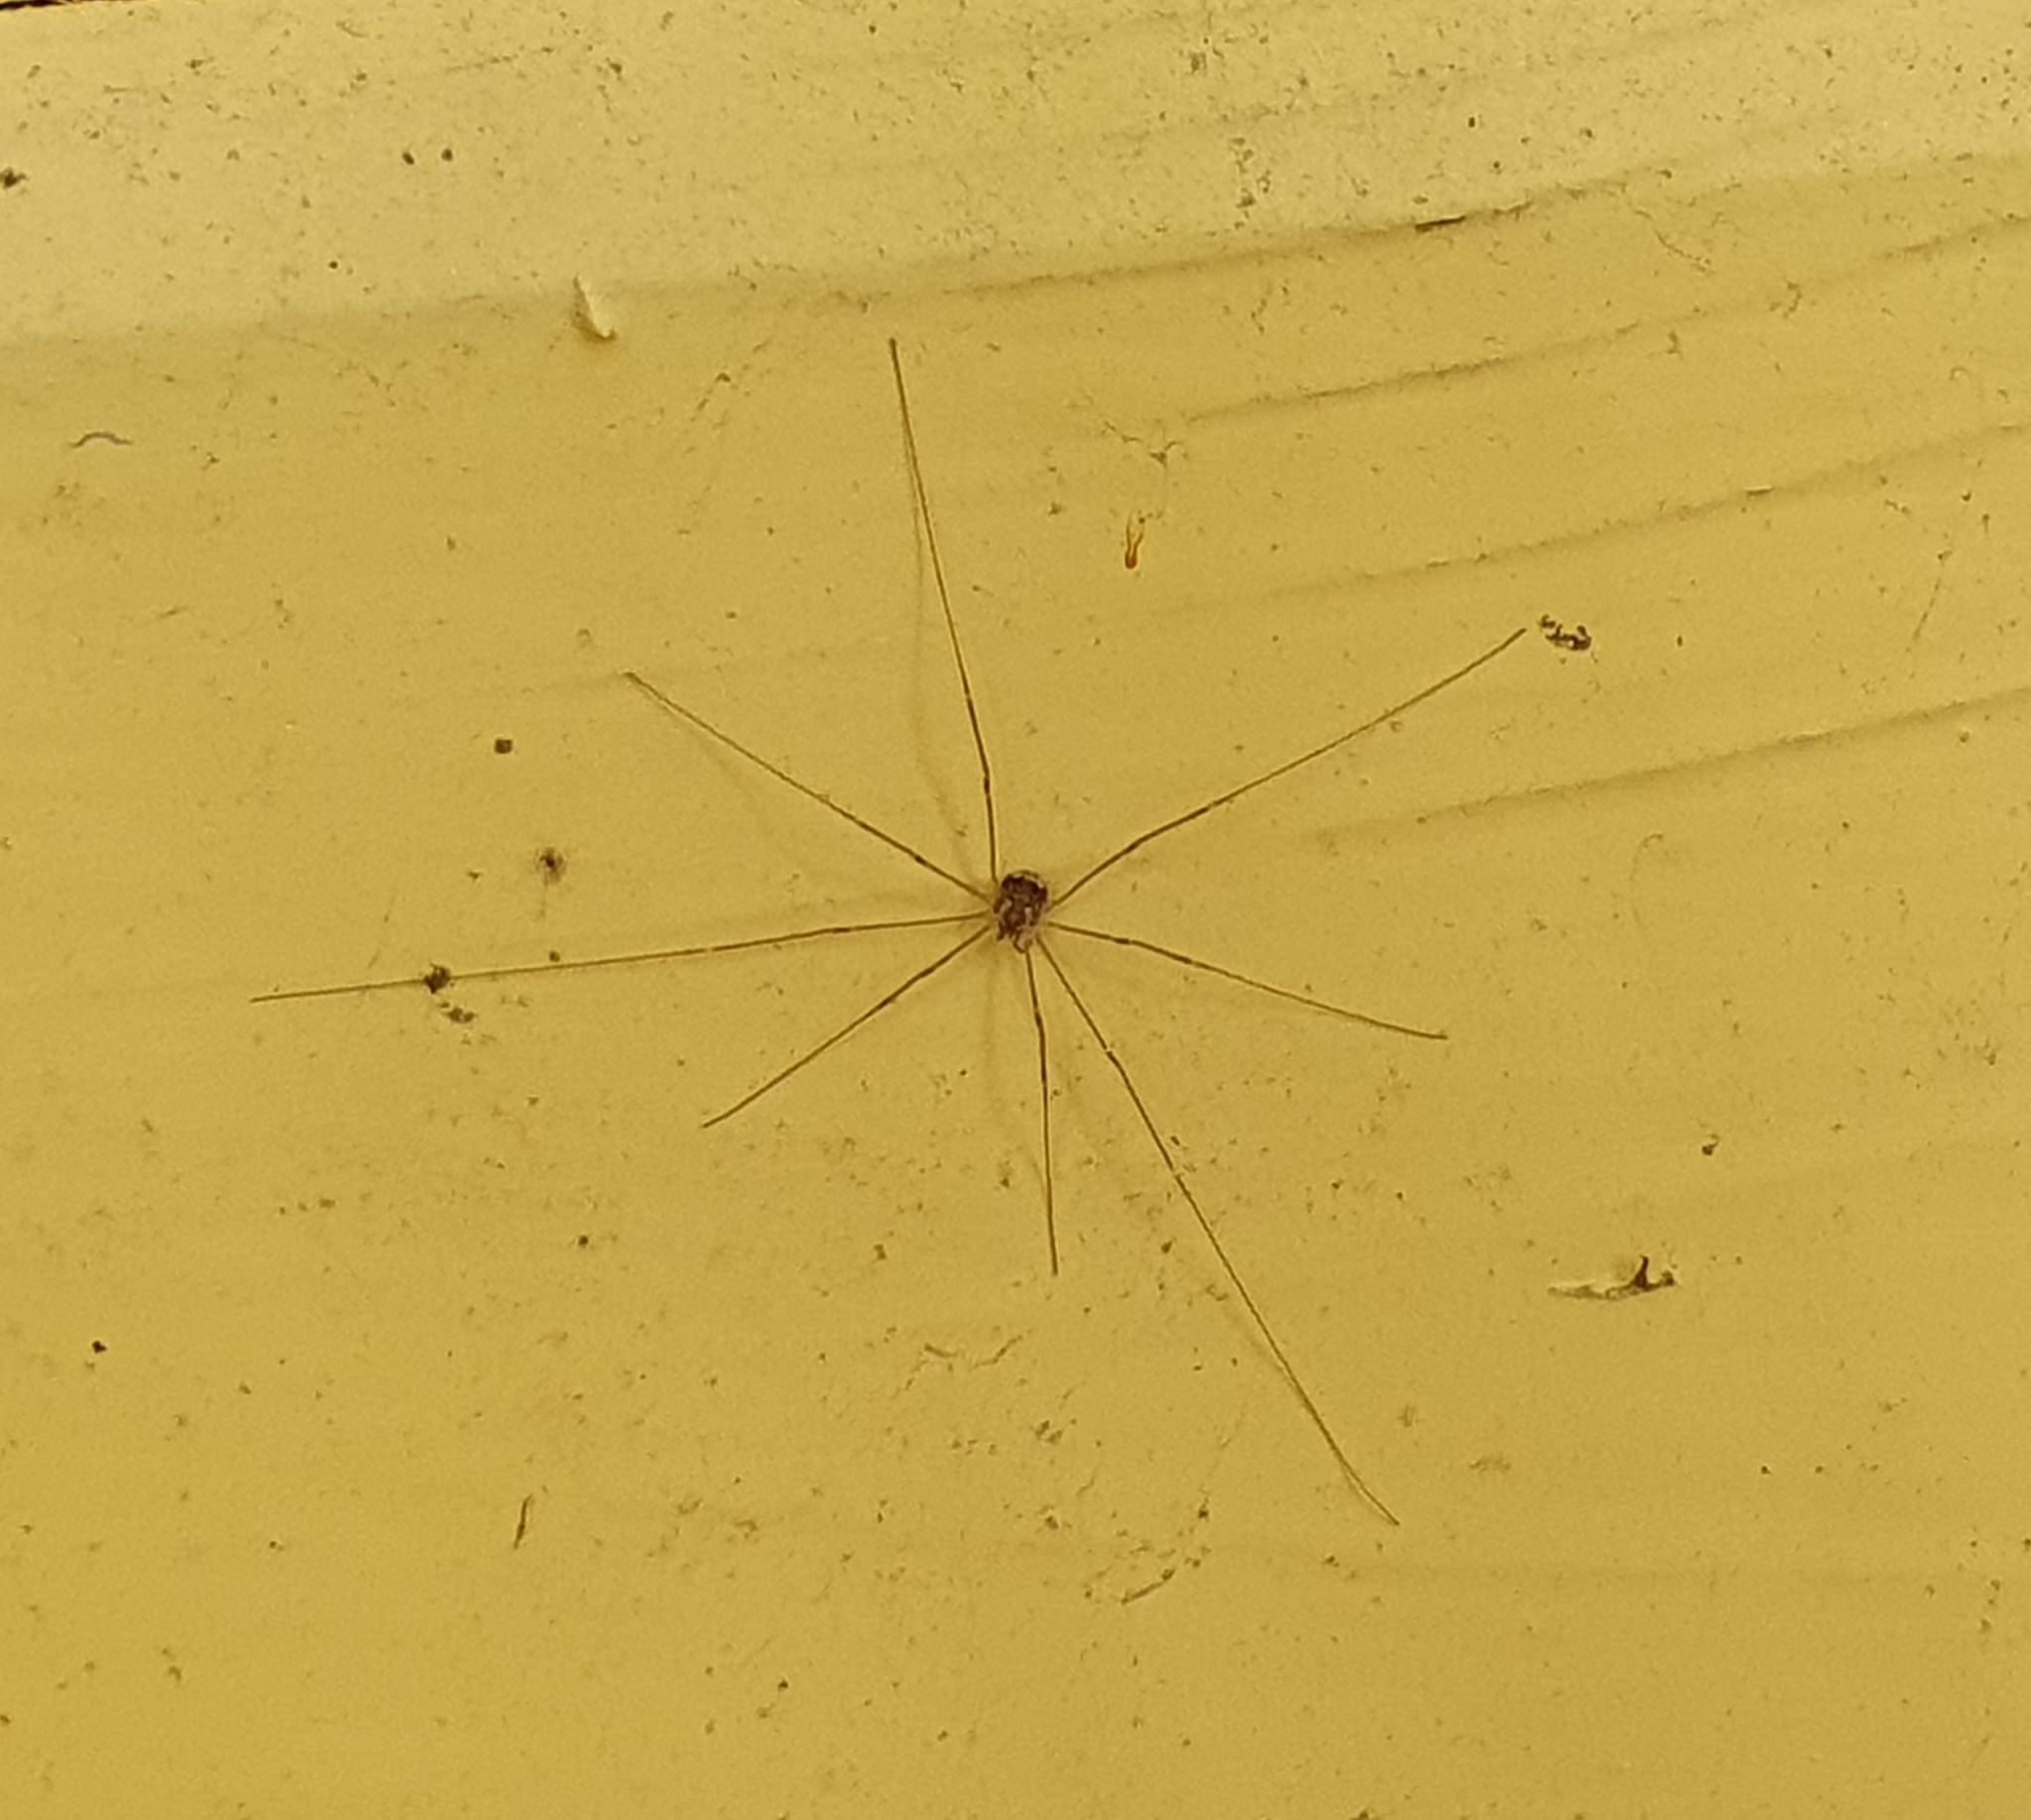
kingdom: Animalia
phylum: Arthropoda
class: Arachnida
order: Opiliones
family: Sclerosomatidae
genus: Leiobunum
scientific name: Leiobunum gracile
